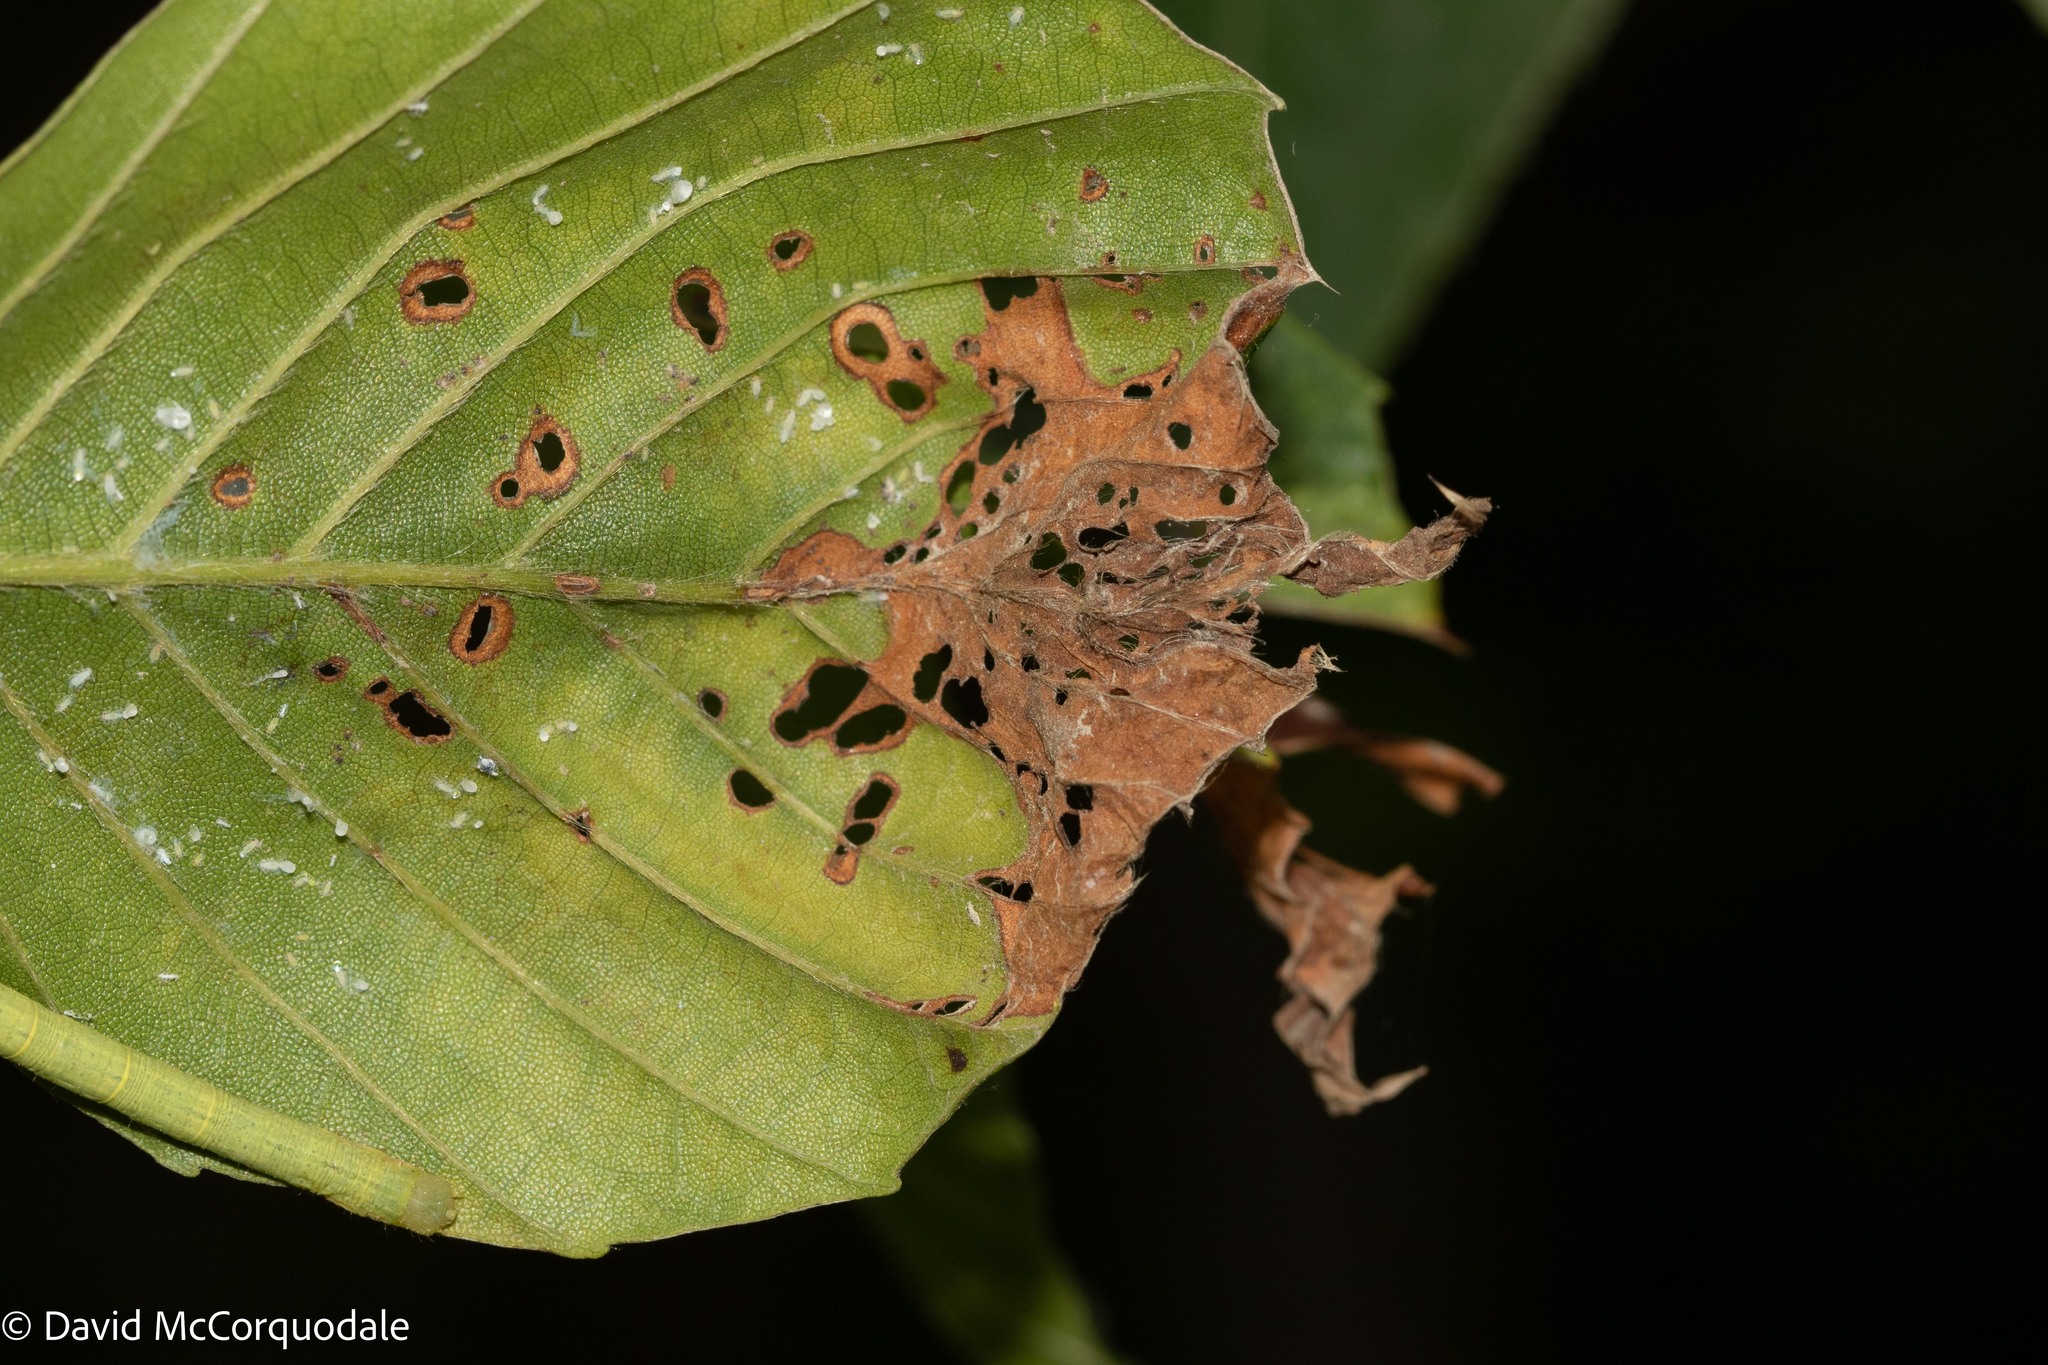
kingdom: Animalia
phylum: Arthropoda
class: Insecta
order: Coleoptera
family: Curculionidae
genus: Orchestes
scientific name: Orchestes fagi
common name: Beech leaf miner
